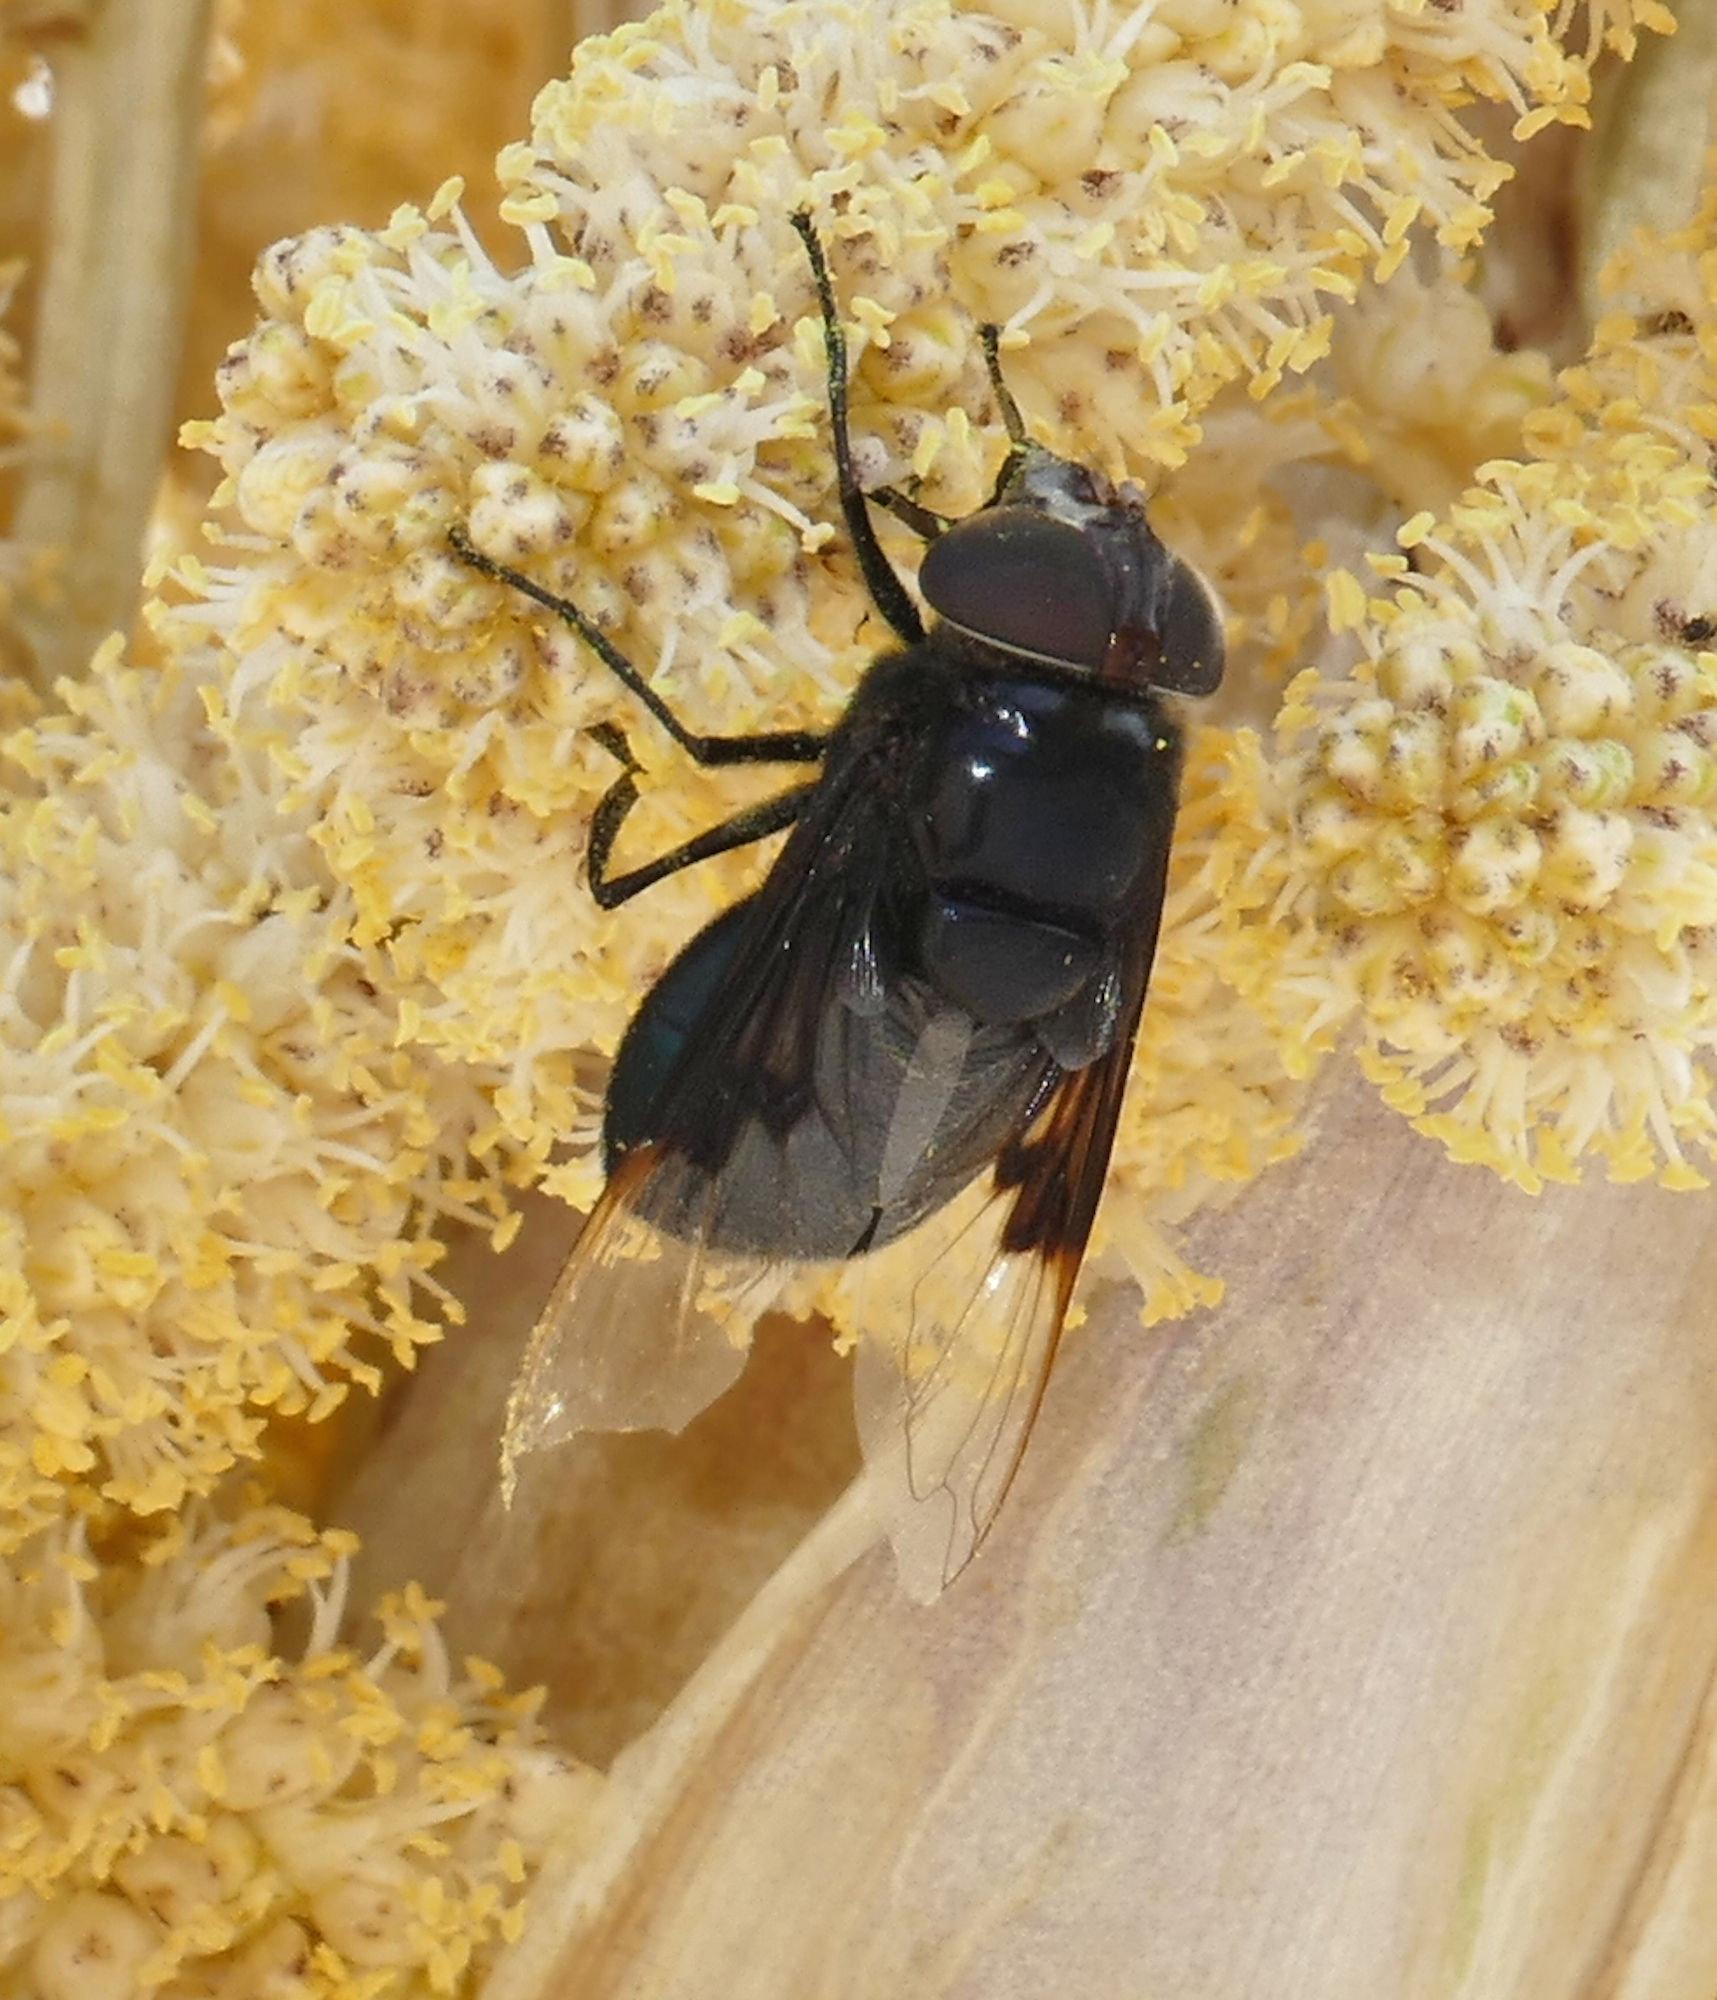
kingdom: Animalia
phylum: Arthropoda
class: Insecta
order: Diptera
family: Syrphidae
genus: Copestylum
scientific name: Copestylum mexicanum
